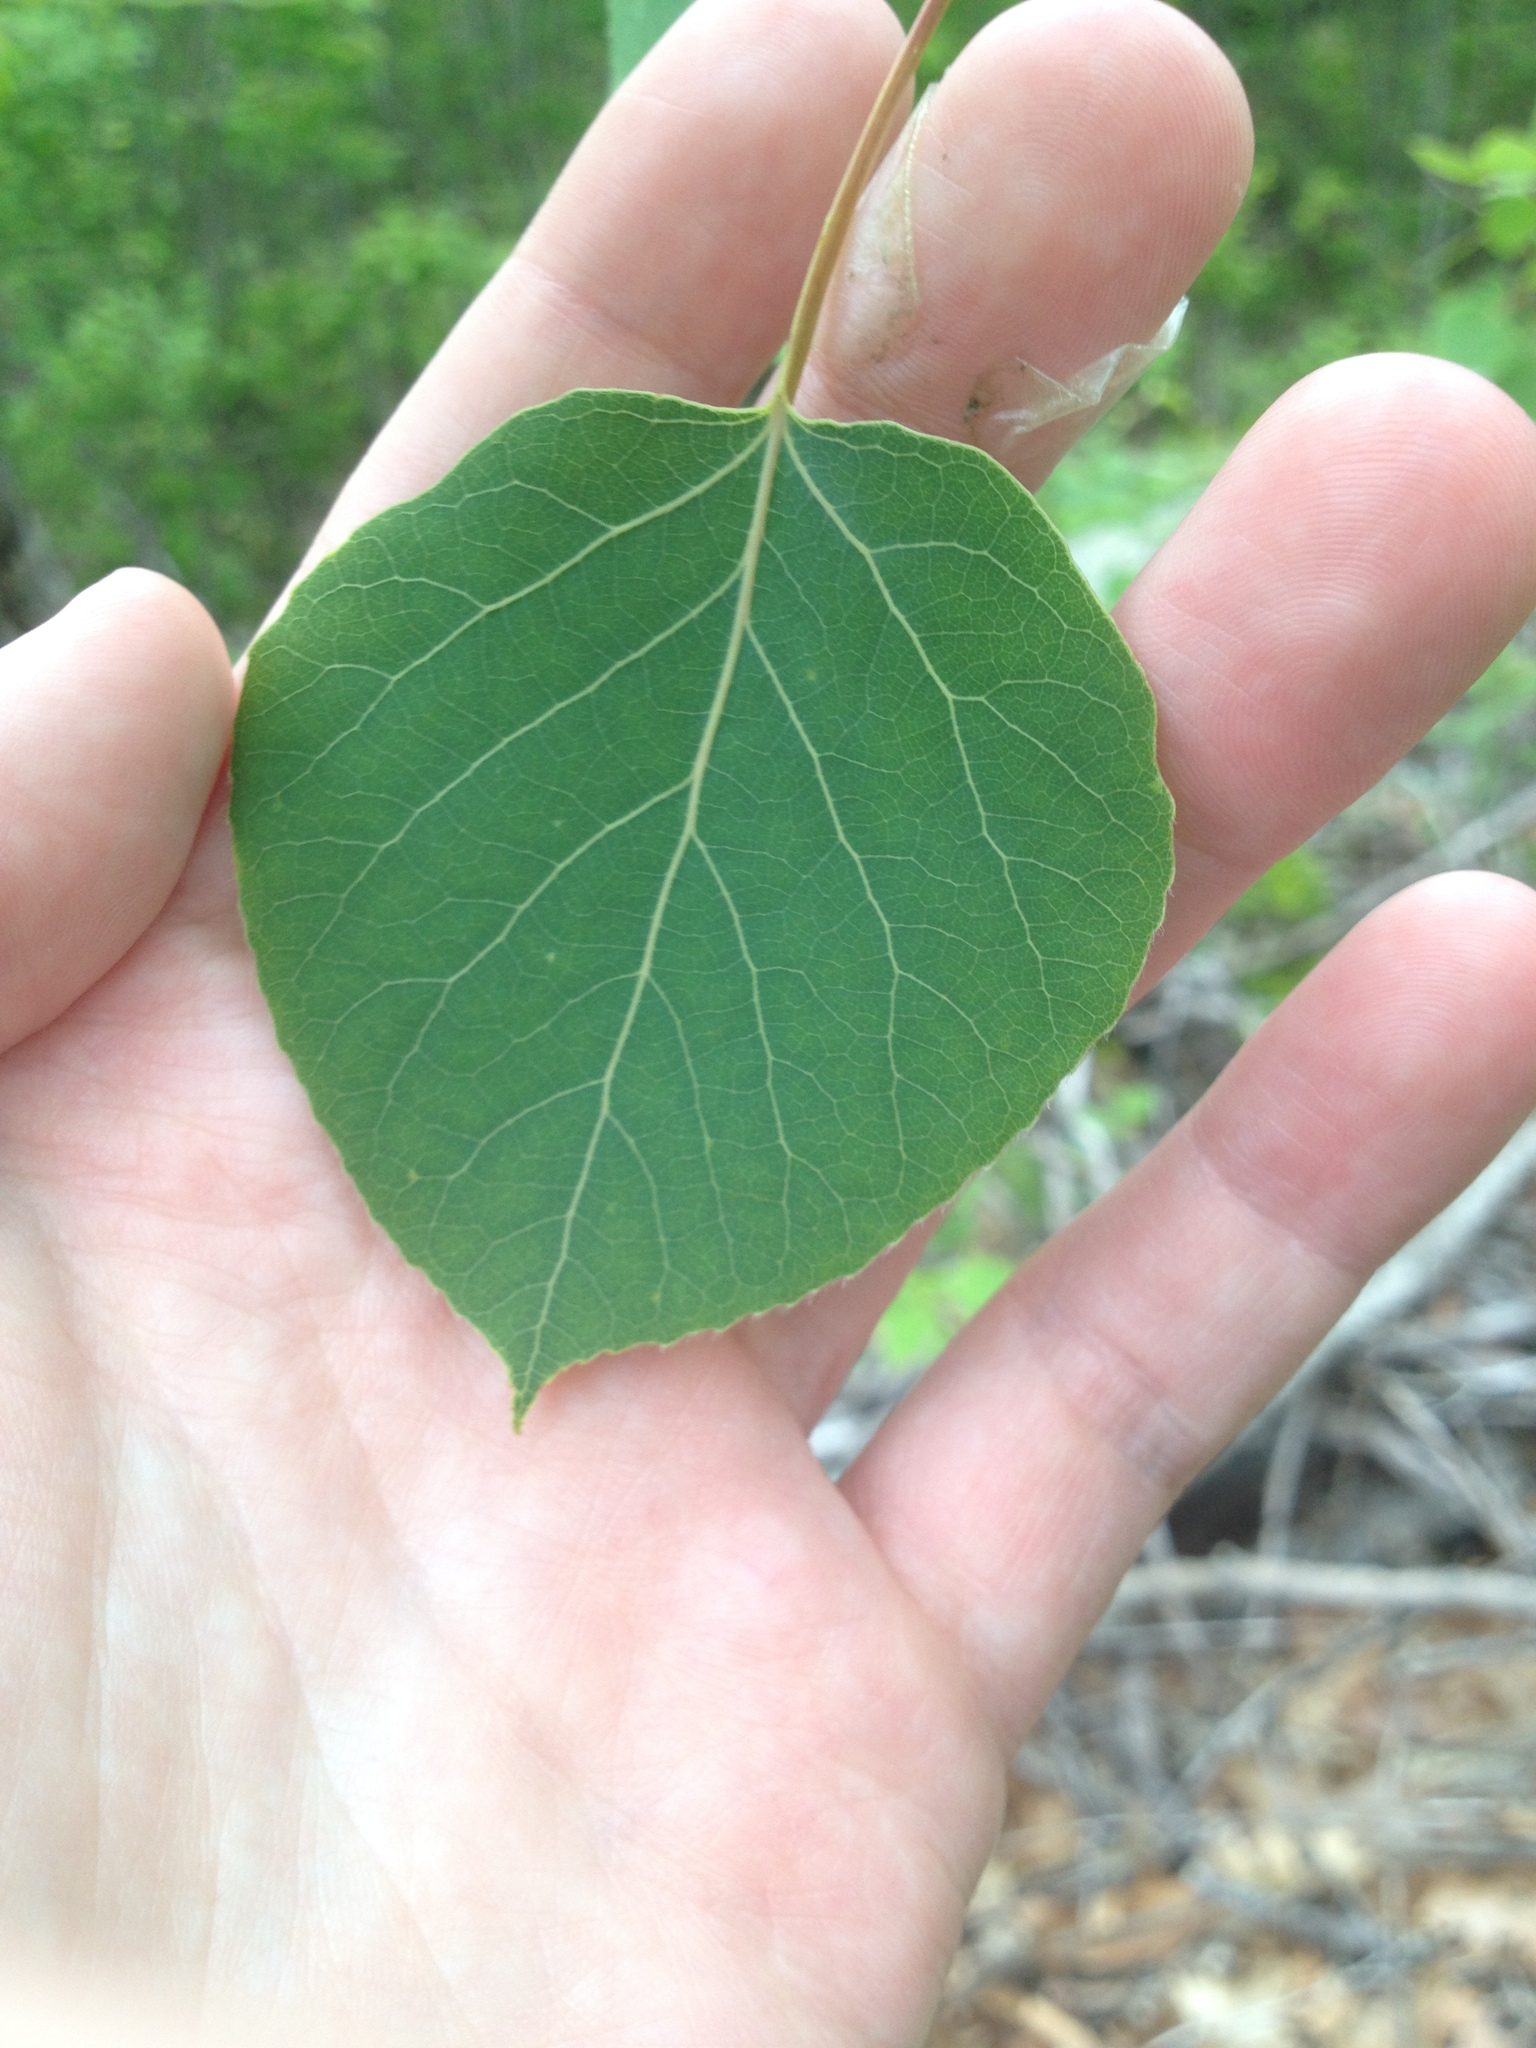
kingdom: Plantae
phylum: Tracheophyta
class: Magnoliopsida
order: Malpighiales
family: Salicaceae
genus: Populus
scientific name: Populus tremuloides
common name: Quaking aspen
